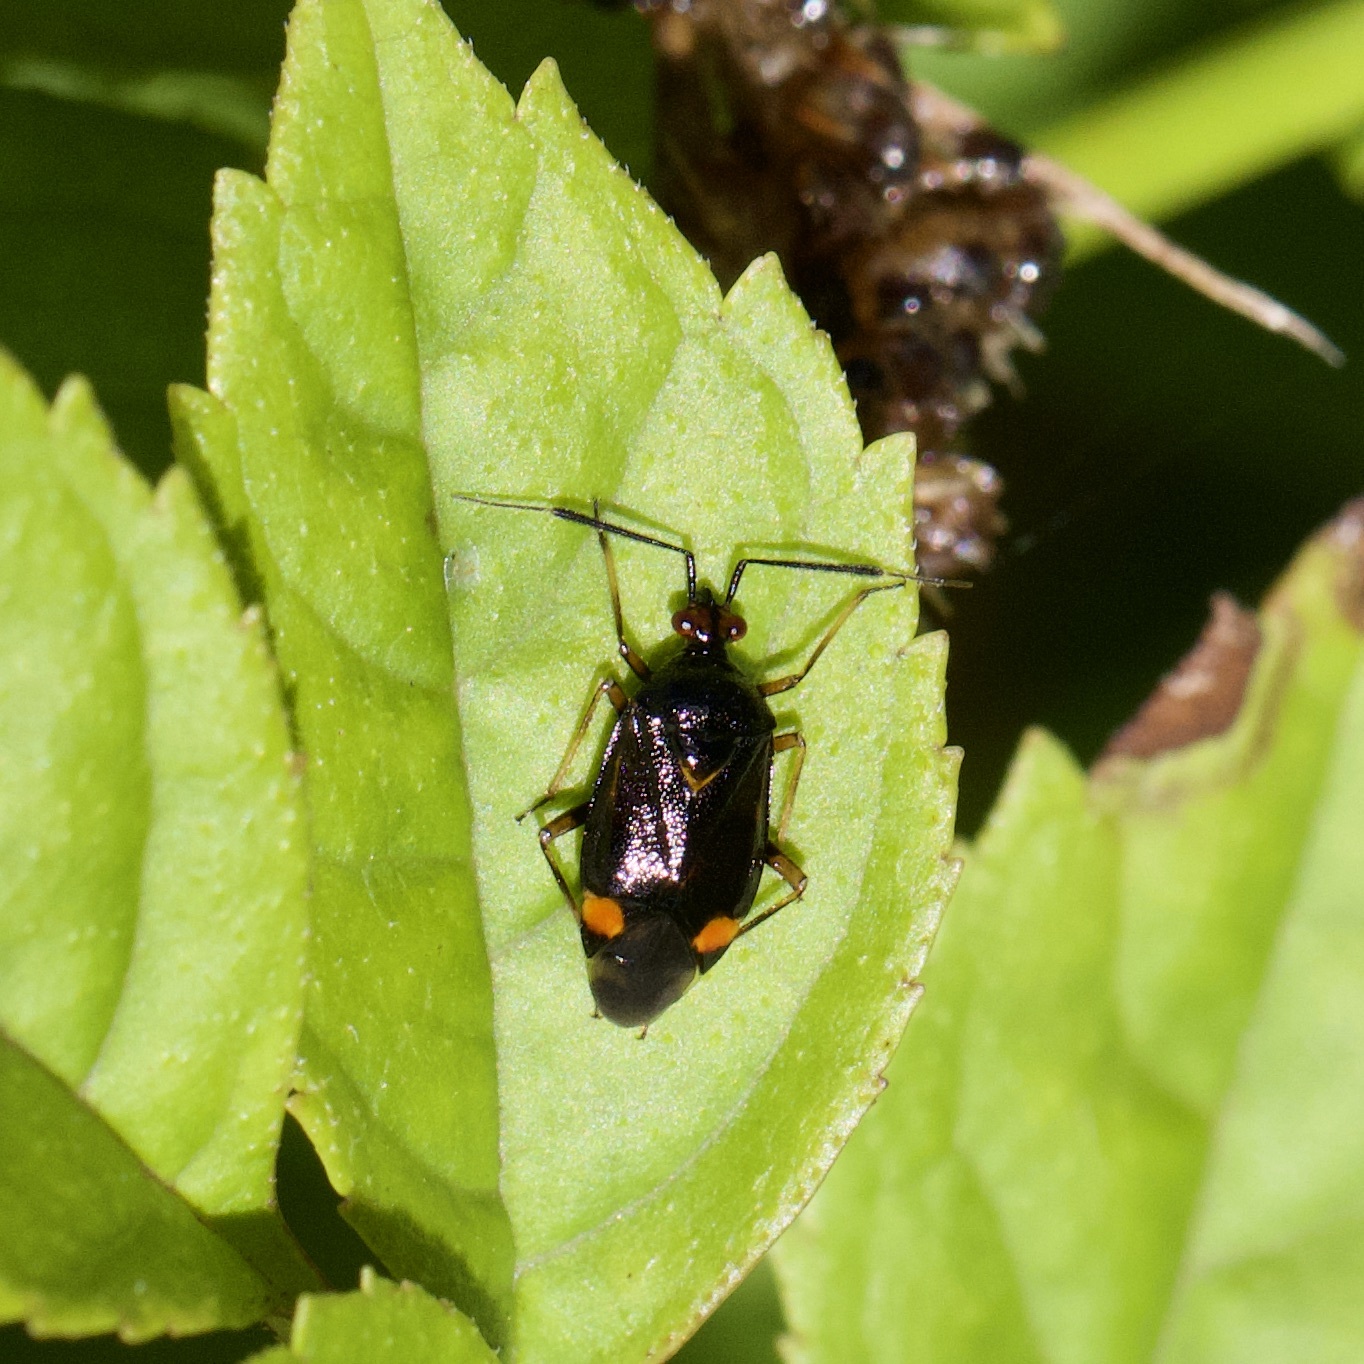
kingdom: Animalia
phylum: Arthropoda
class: Insecta
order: Hemiptera
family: Miridae
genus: Deraeocoris
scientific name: Deraeocoris ruber
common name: Plant bug
